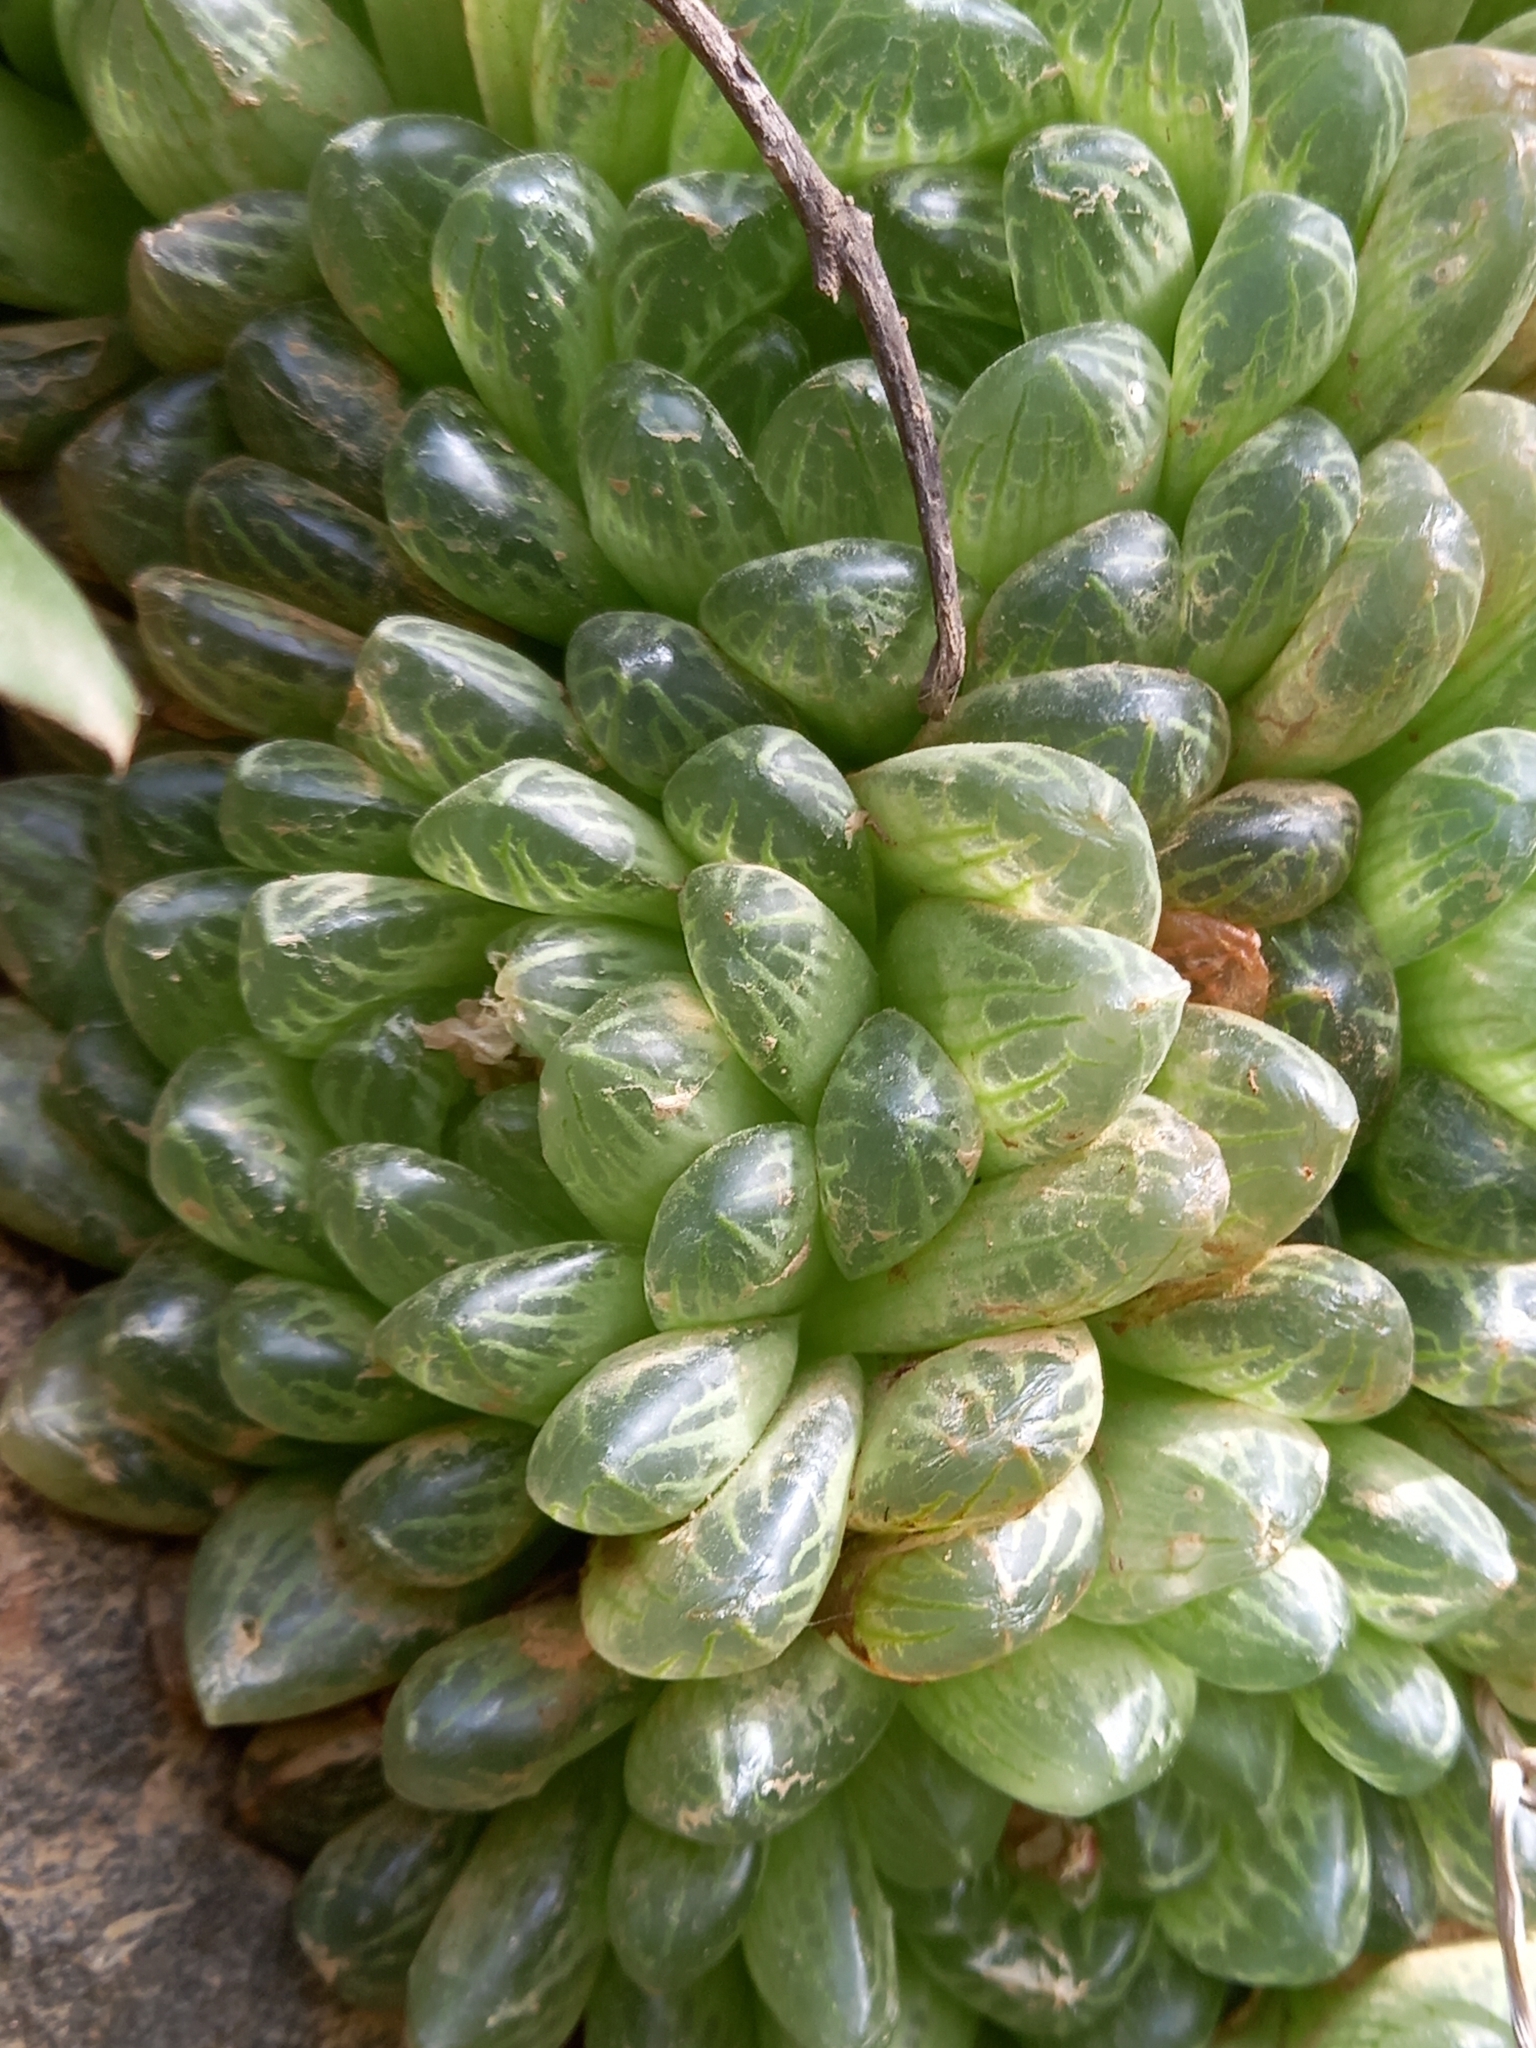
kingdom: Plantae
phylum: Tracheophyta
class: Liliopsida
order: Asparagales
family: Asphodelaceae
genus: Haworthia
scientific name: Haworthia transiens
